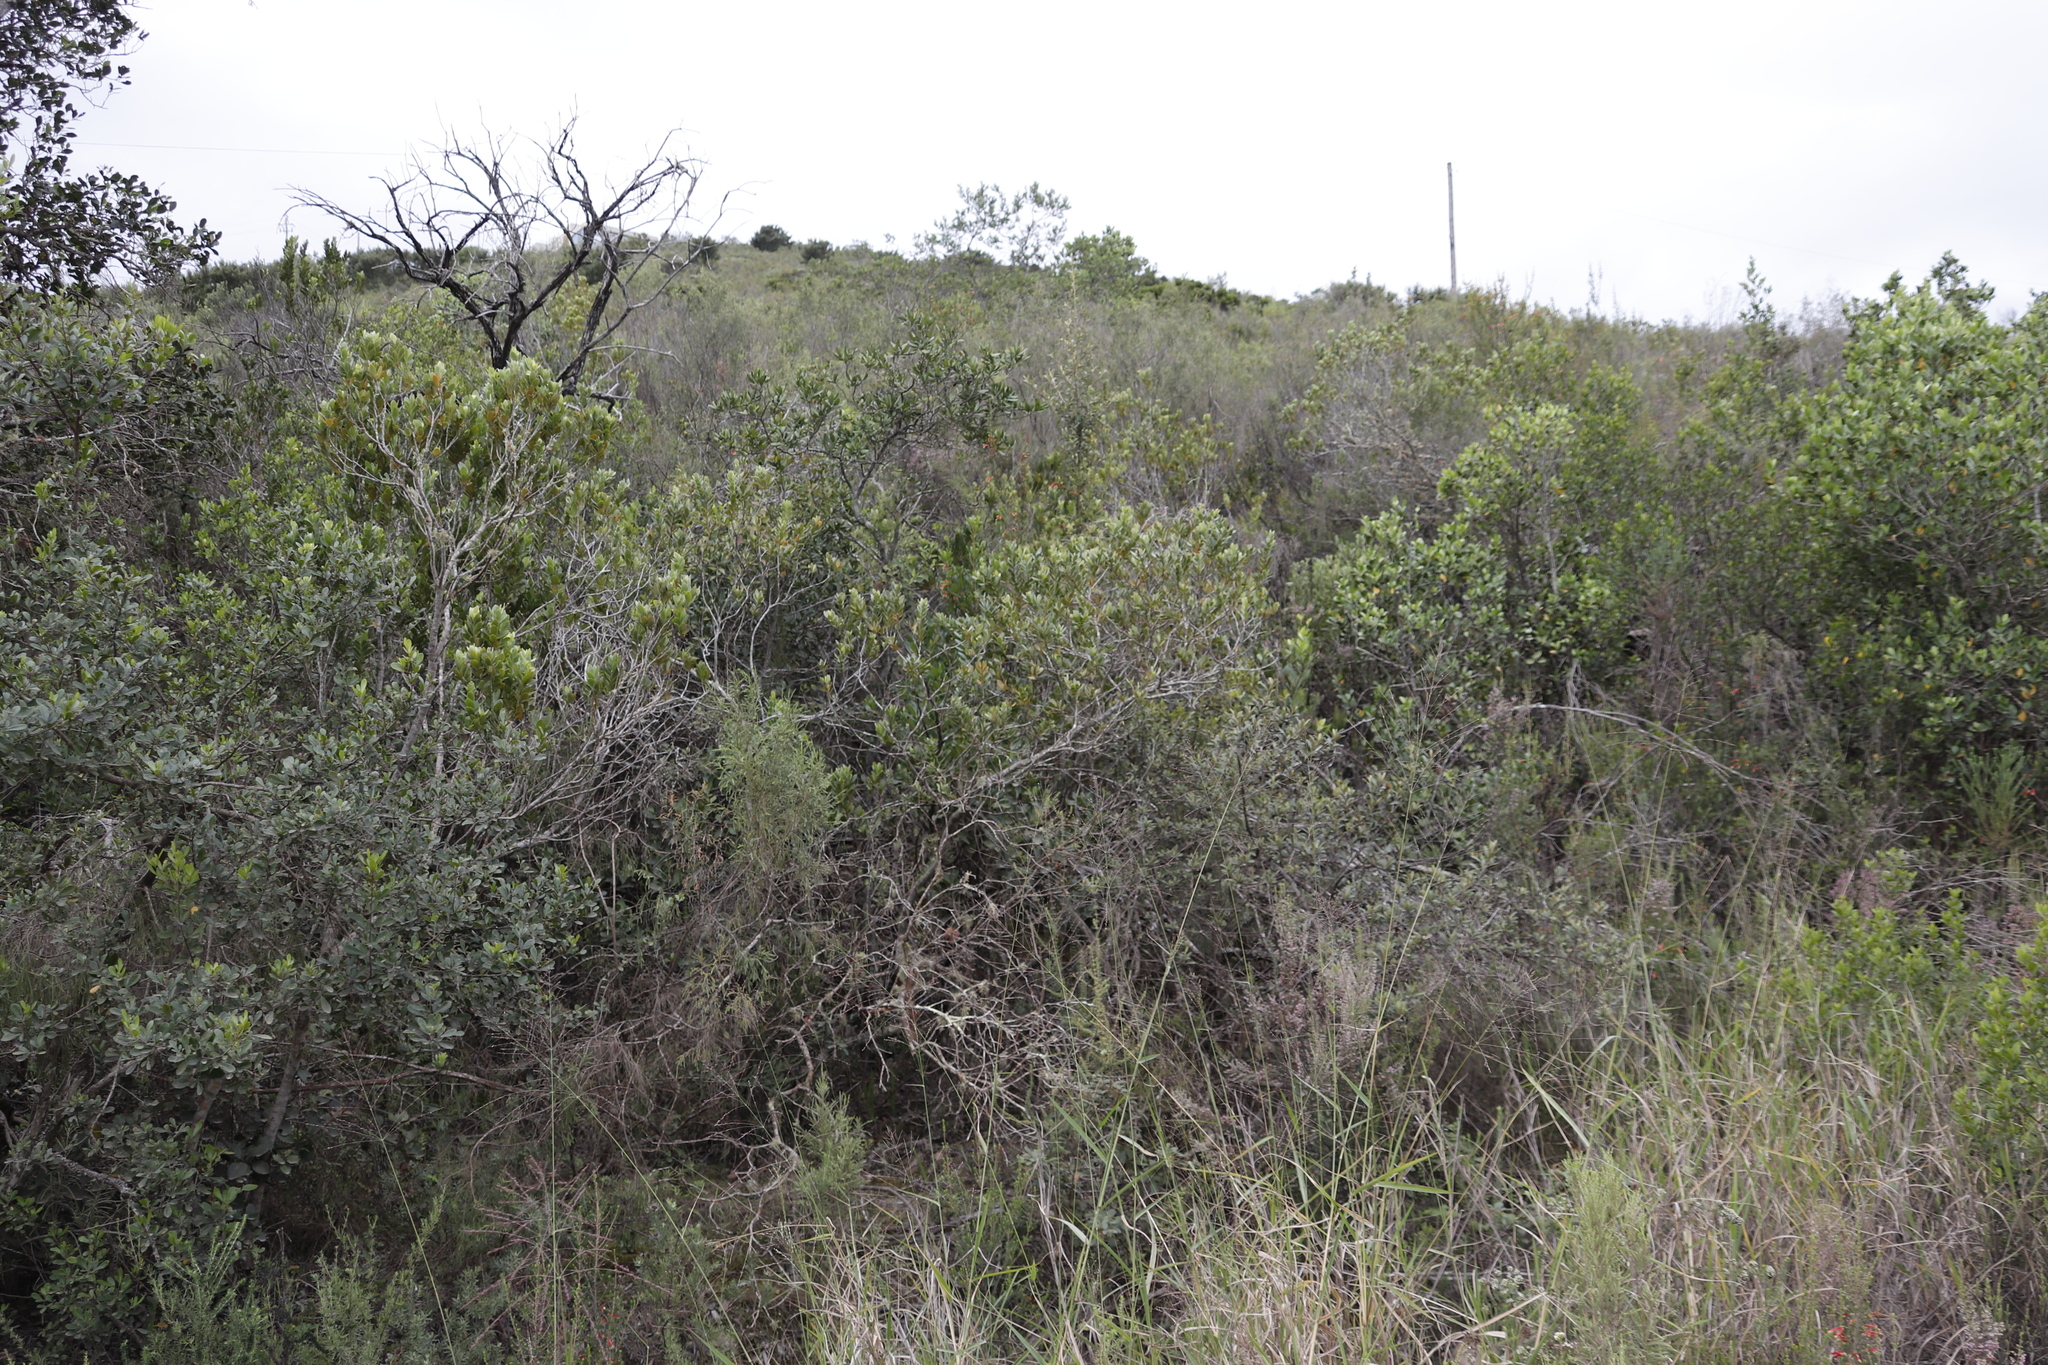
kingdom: Plantae
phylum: Tracheophyta
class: Magnoliopsida
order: Santalales
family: Santalaceae
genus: Osyris
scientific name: Osyris compressa
